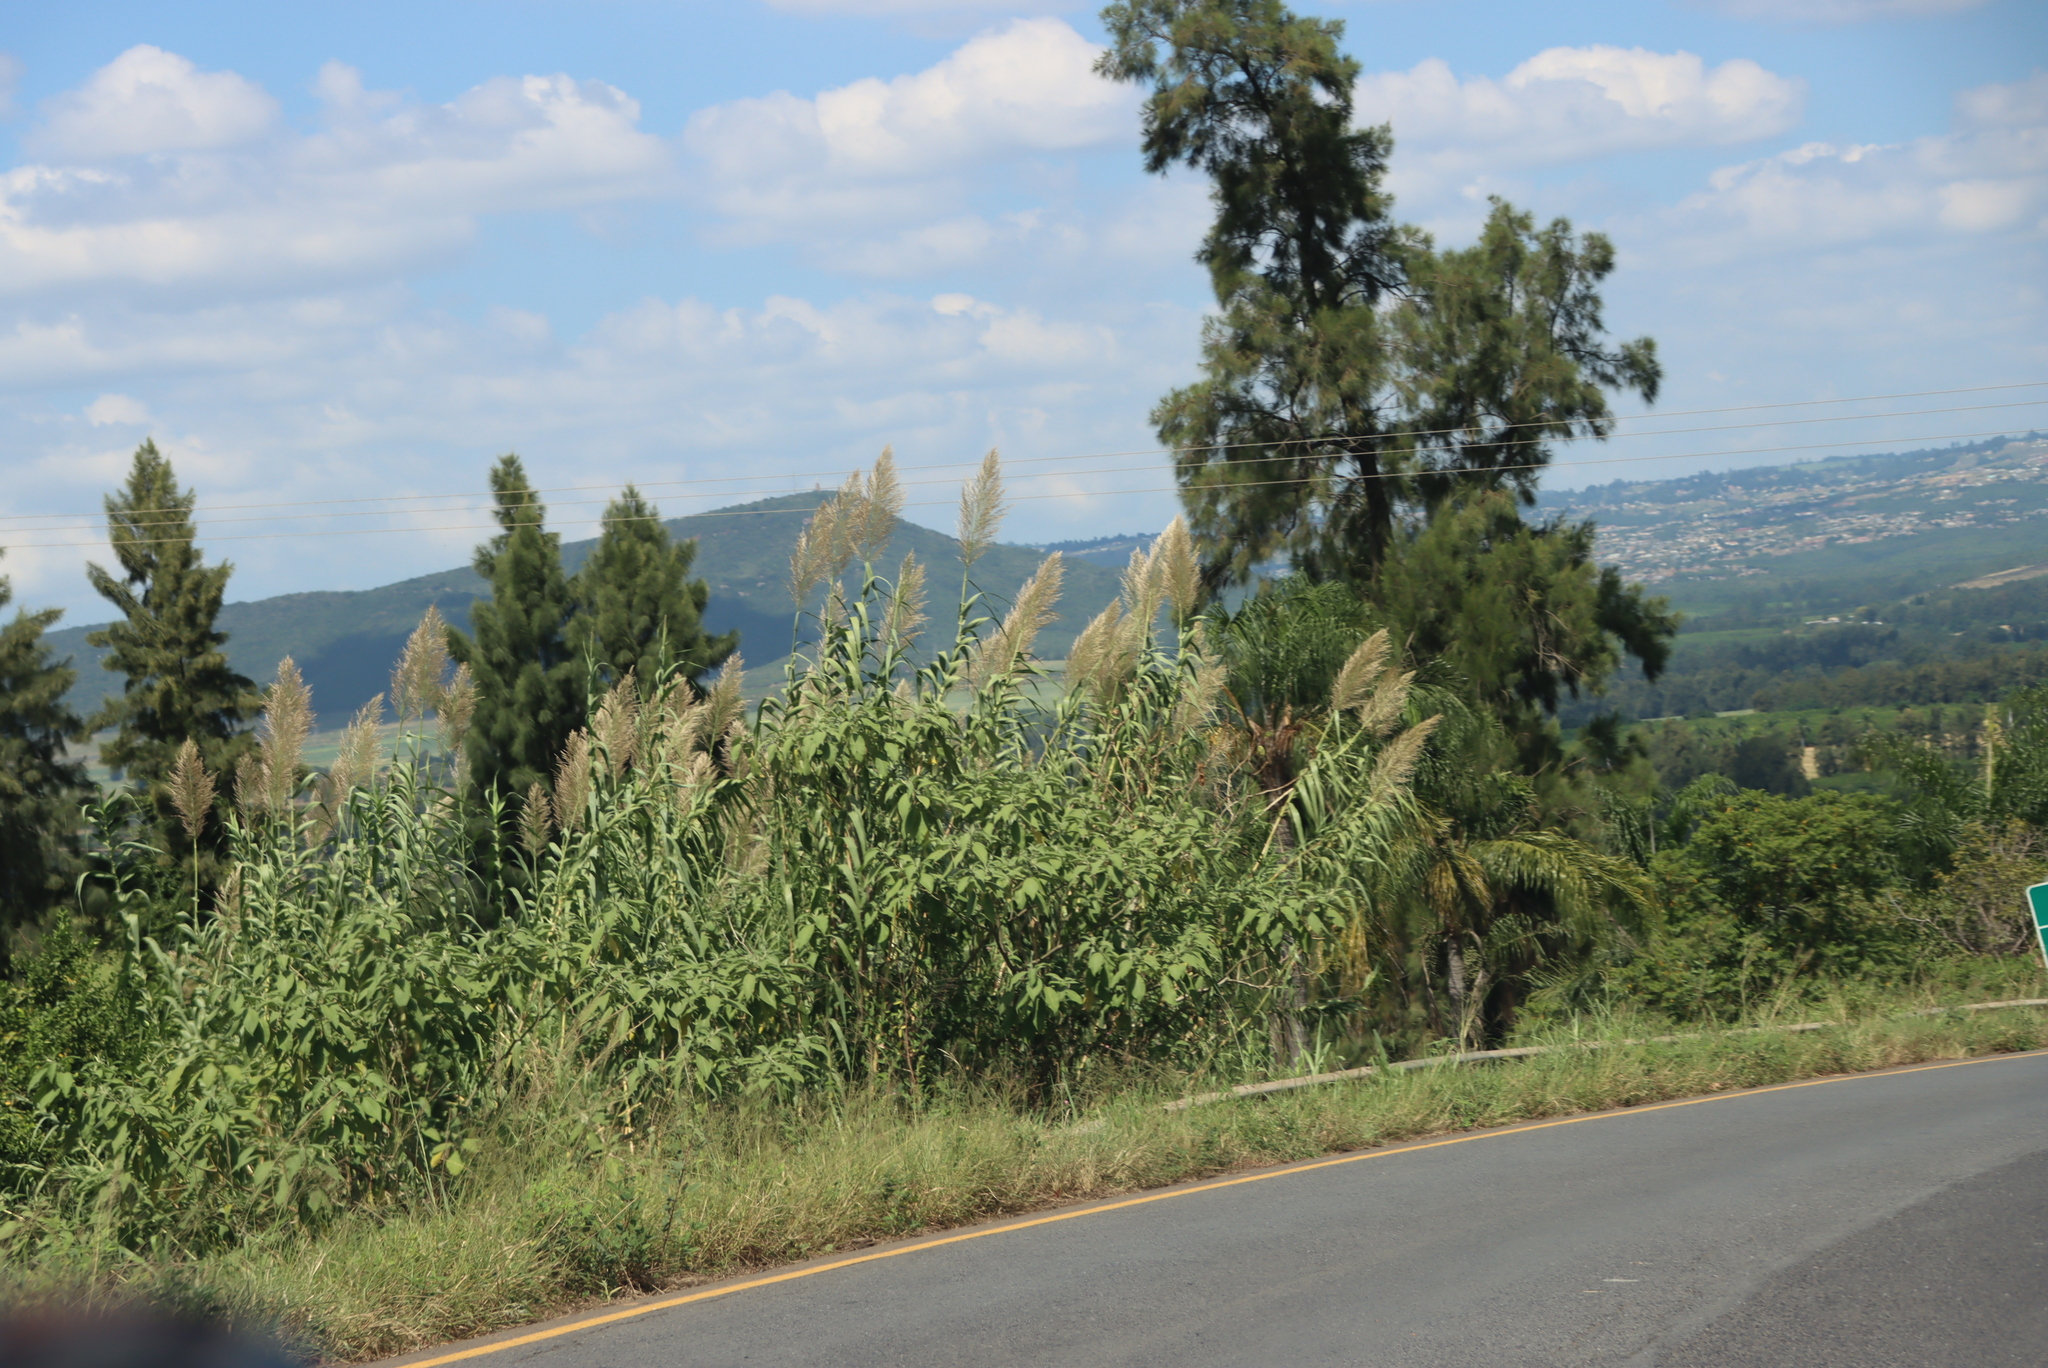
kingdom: Plantae
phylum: Tracheophyta
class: Liliopsida
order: Poales
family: Poaceae
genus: Arundo
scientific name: Arundo donax
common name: Giant reed
